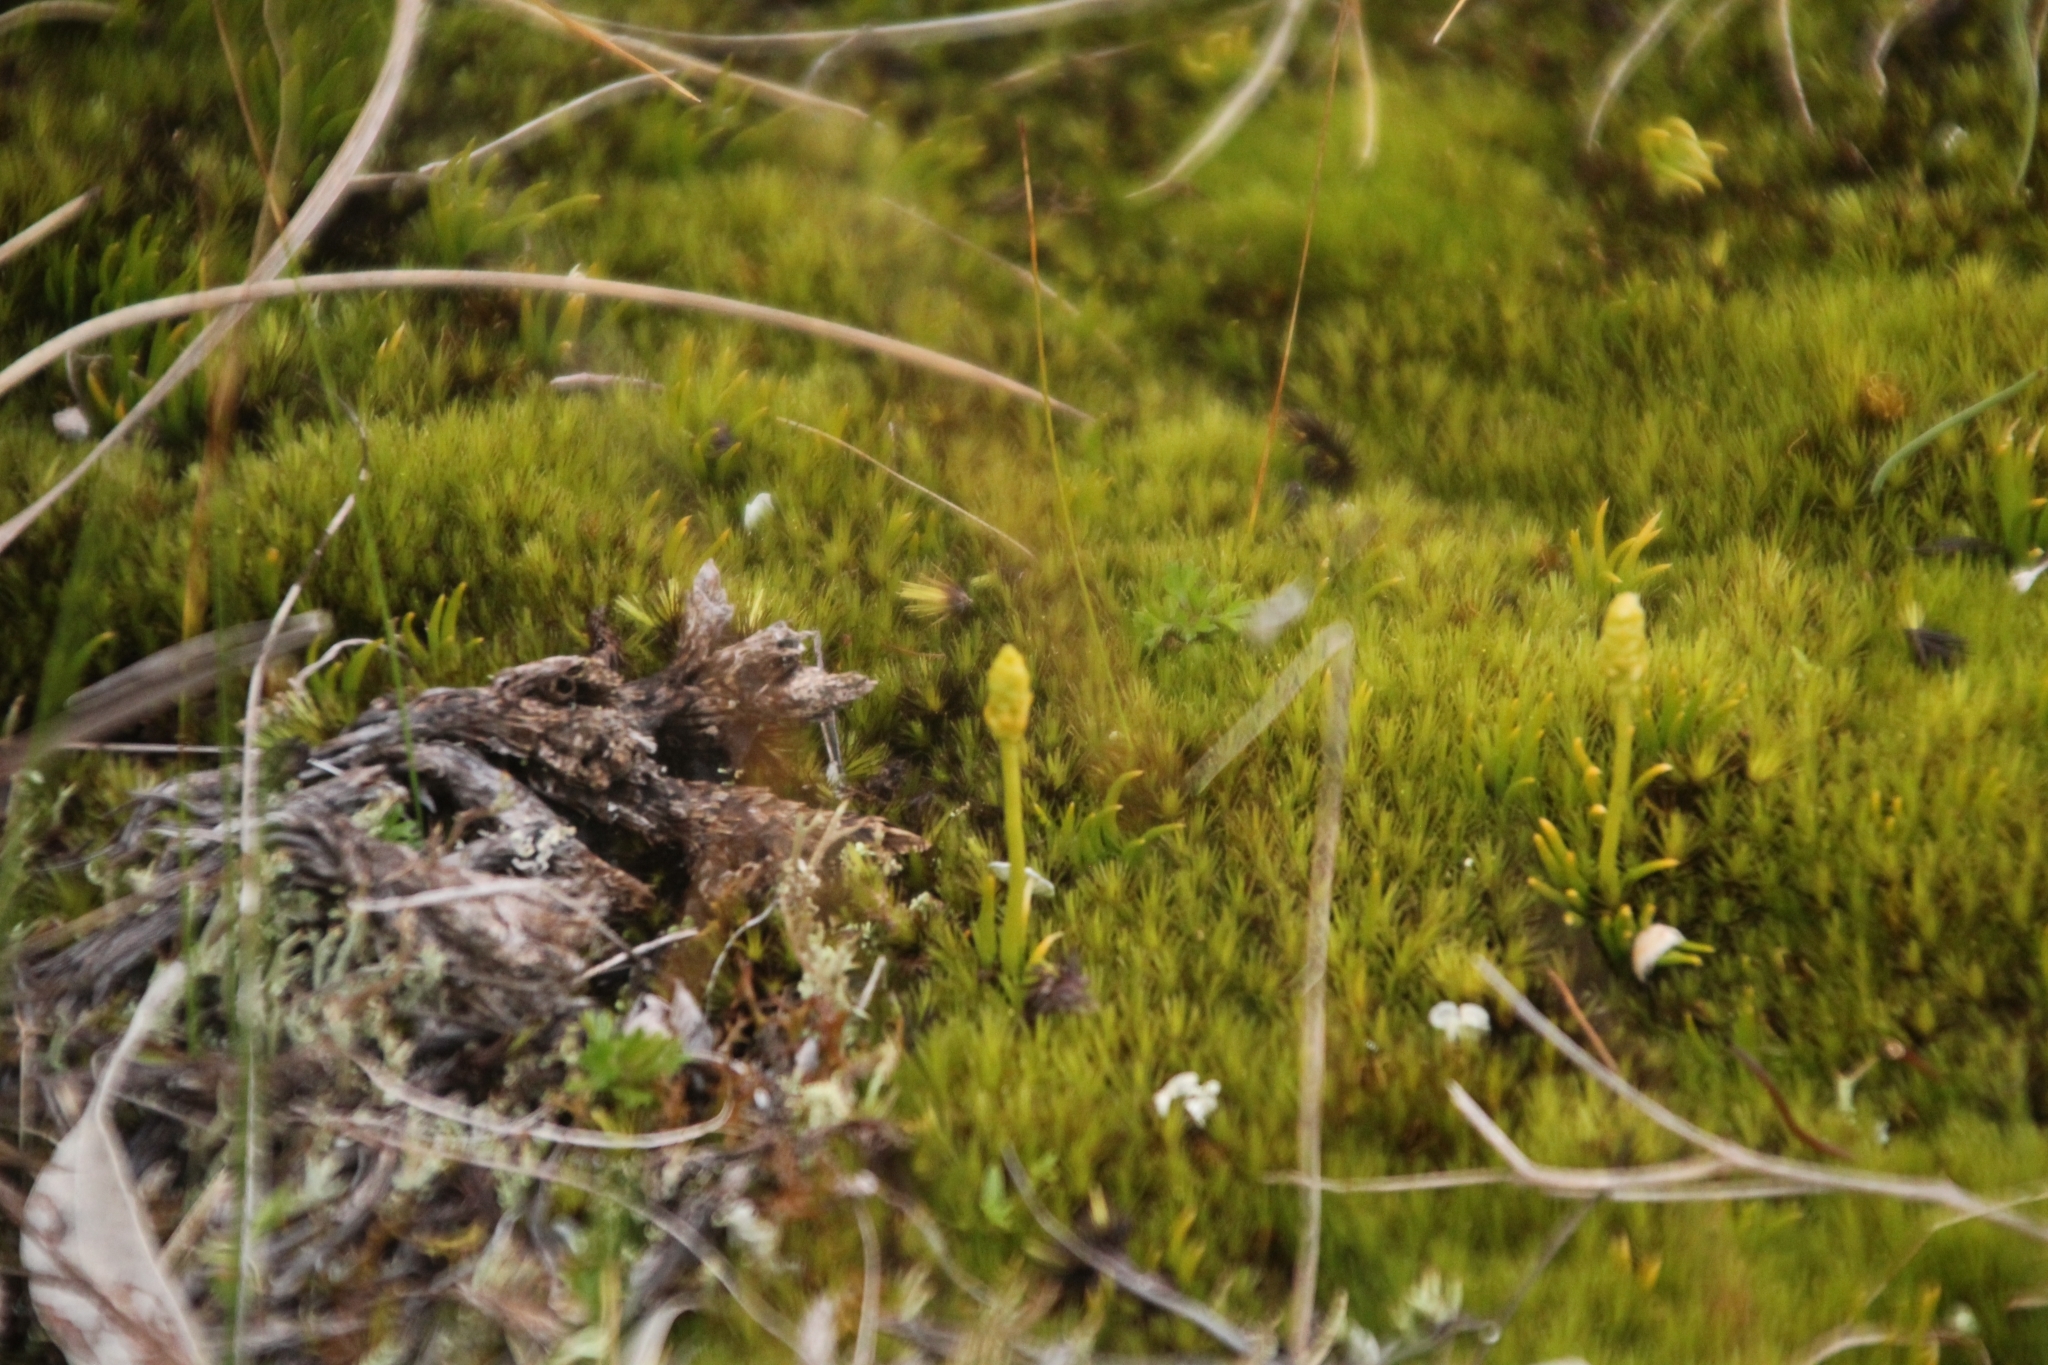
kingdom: Plantae
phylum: Tracheophyta
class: Lycopodiopsida
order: Lycopodiales
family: Lycopodiaceae
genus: Phylloglossum
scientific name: Phylloglossum drummondii
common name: Pigmy-club-moss
